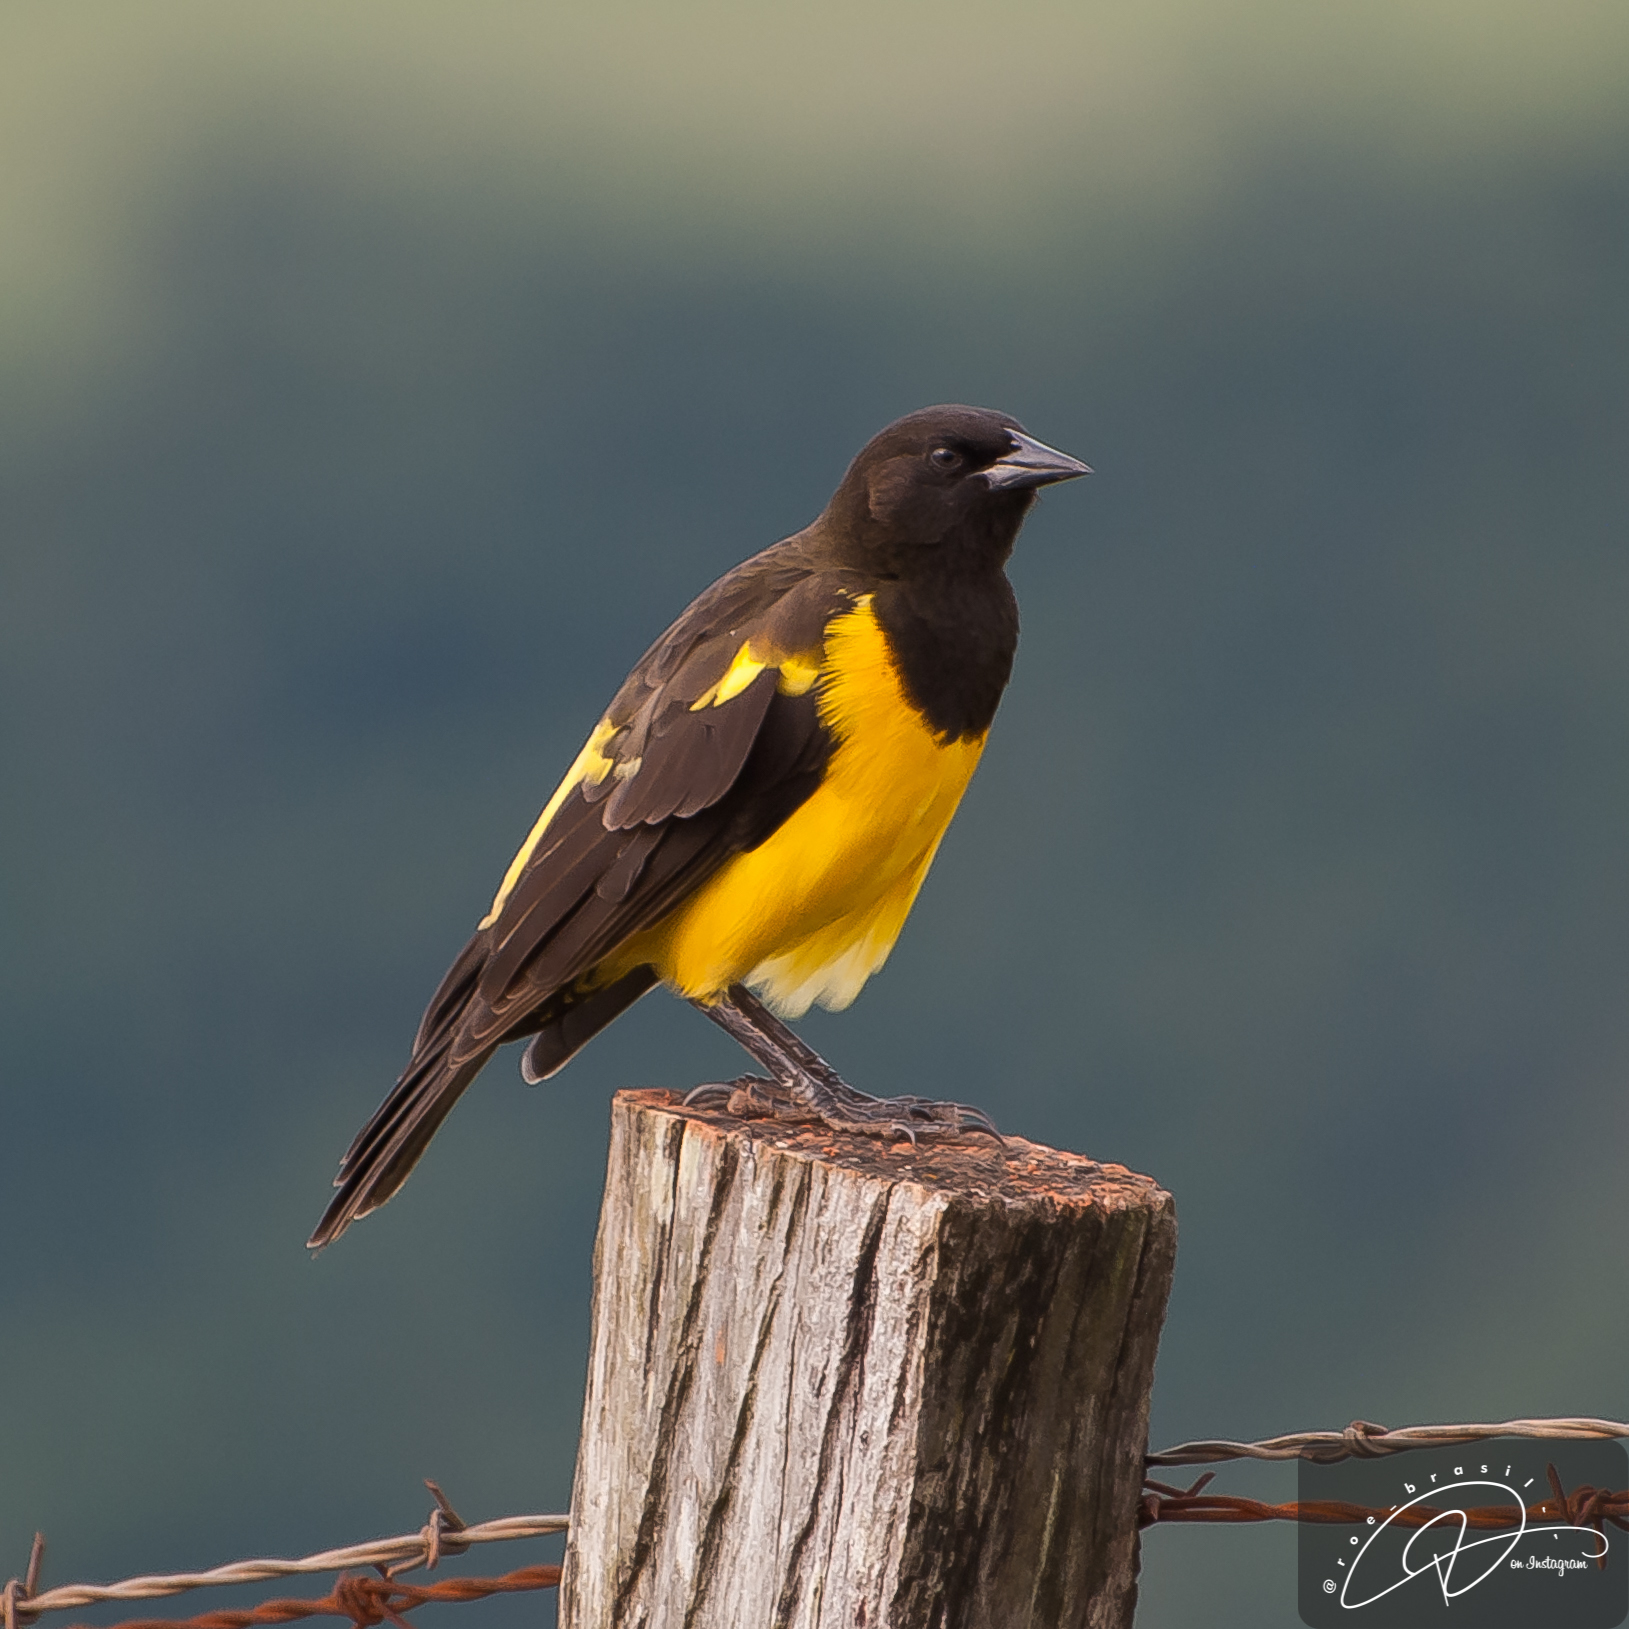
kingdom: Animalia
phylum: Chordata
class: Aves
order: Passeriformes
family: Icteridae
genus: Pseudoleistes
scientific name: Pseudoleistes guirahuro
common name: Yellow-rumped marshbird
